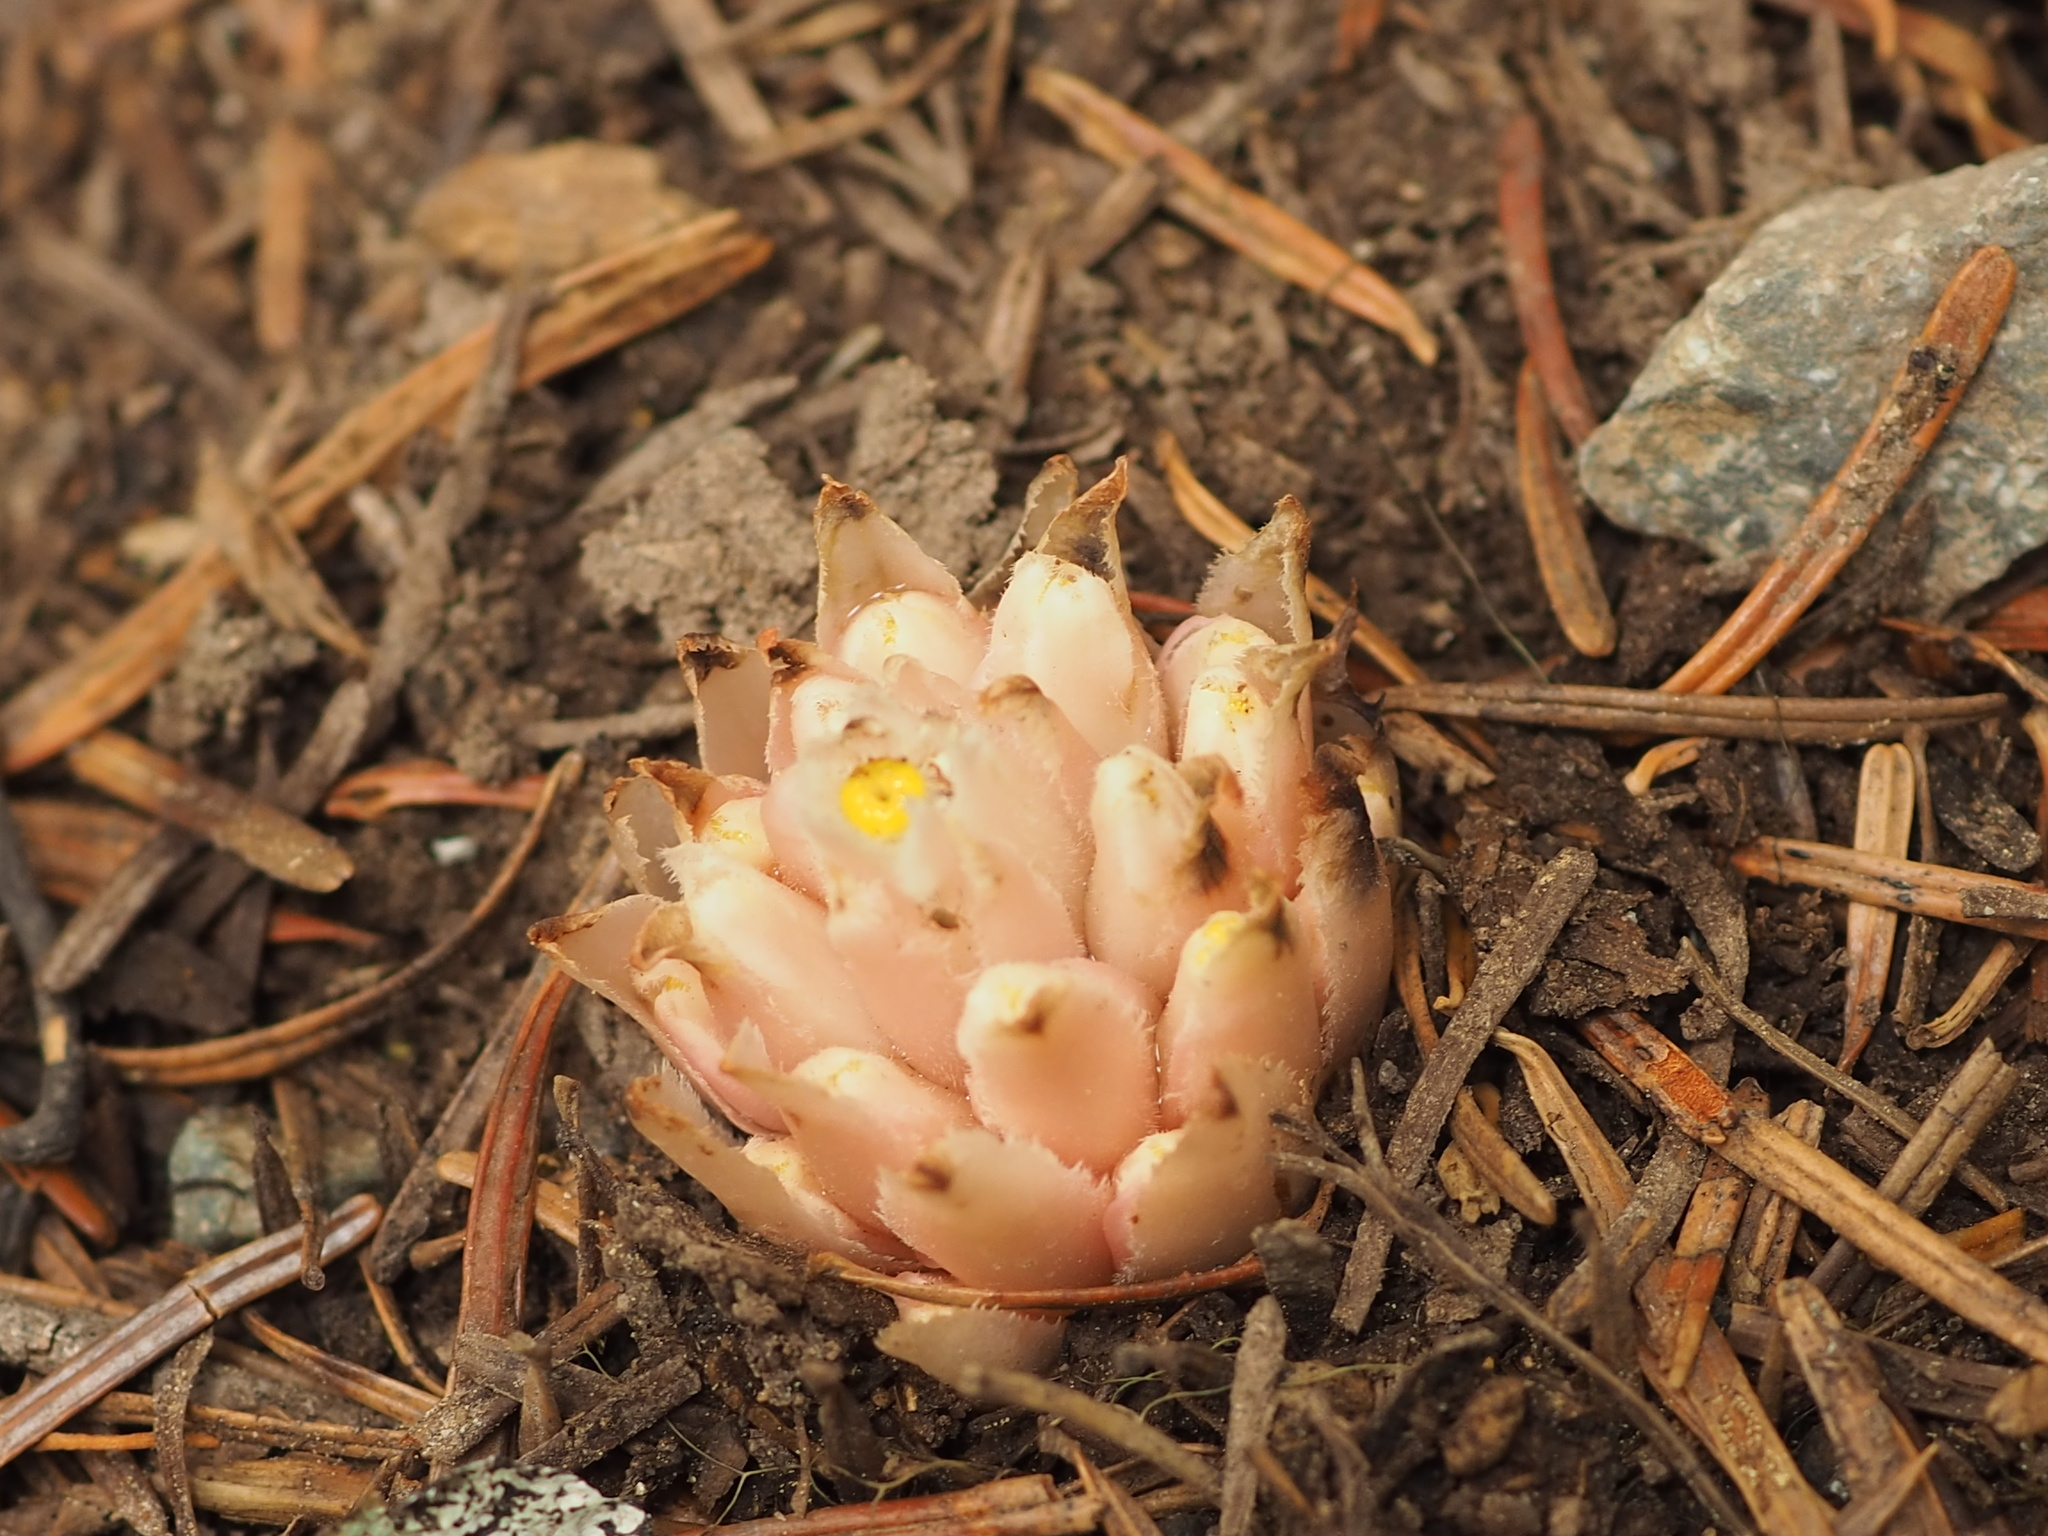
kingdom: Plantae
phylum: Tracheophyta
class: Magnoliopsida
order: Ericales
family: Ericaceae
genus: Hemitomes
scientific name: Hemitomes congestum
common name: Cone plant
